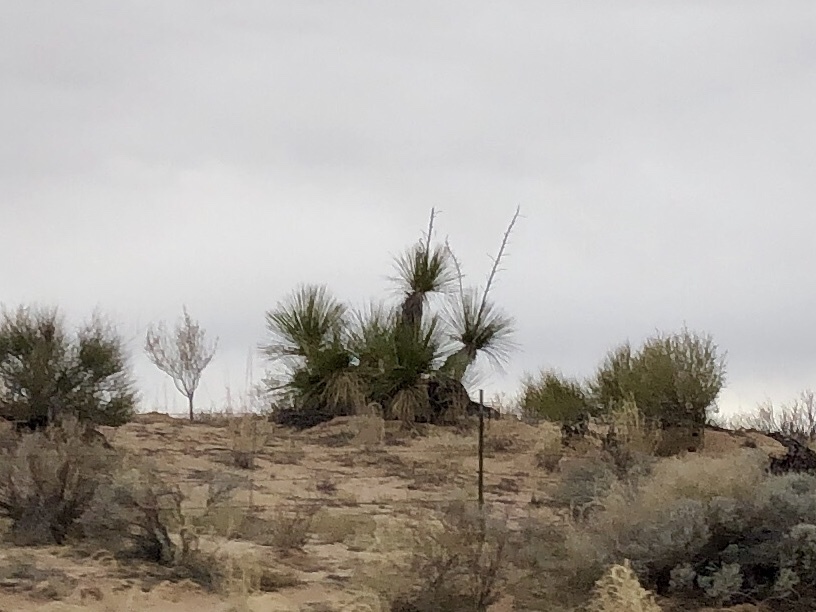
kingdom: Plantae
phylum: Tracheophyta
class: Liliopsida
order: Asparagales
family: Asparagaceae
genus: Yucca
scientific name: Yucca elata
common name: Palmella
